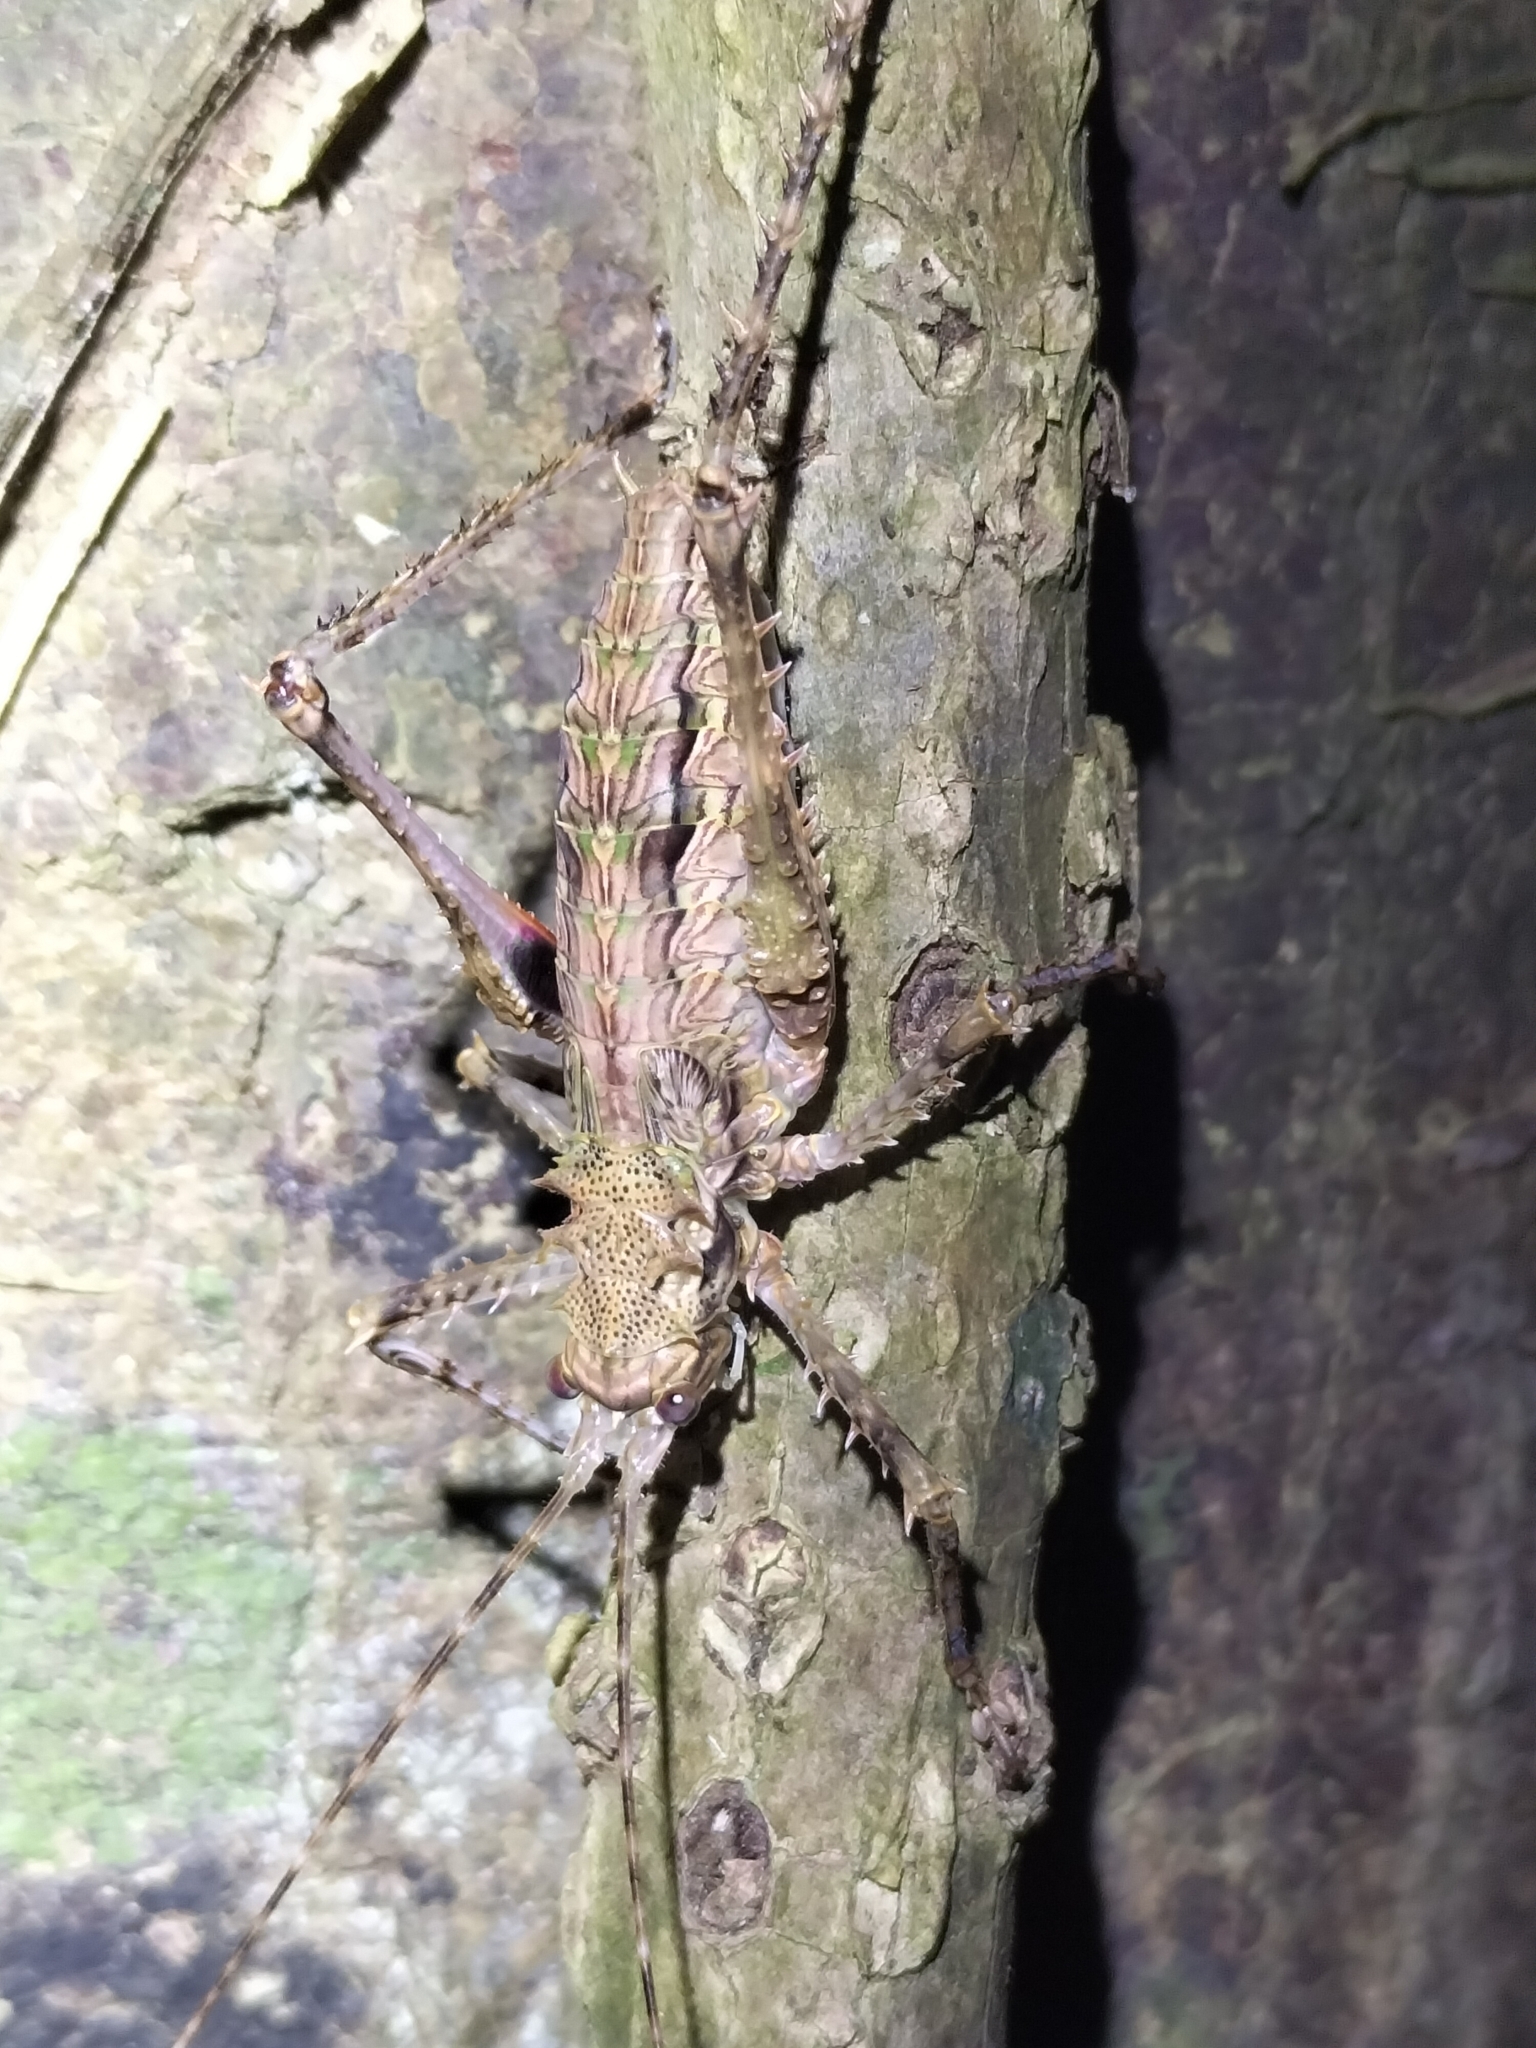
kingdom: Animalia
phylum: Arthropoda
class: Insecta
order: Orthoptera
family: Tettigoniidae
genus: Phricta
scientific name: Phricta spinosa
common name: Giant spiny forest katydid
